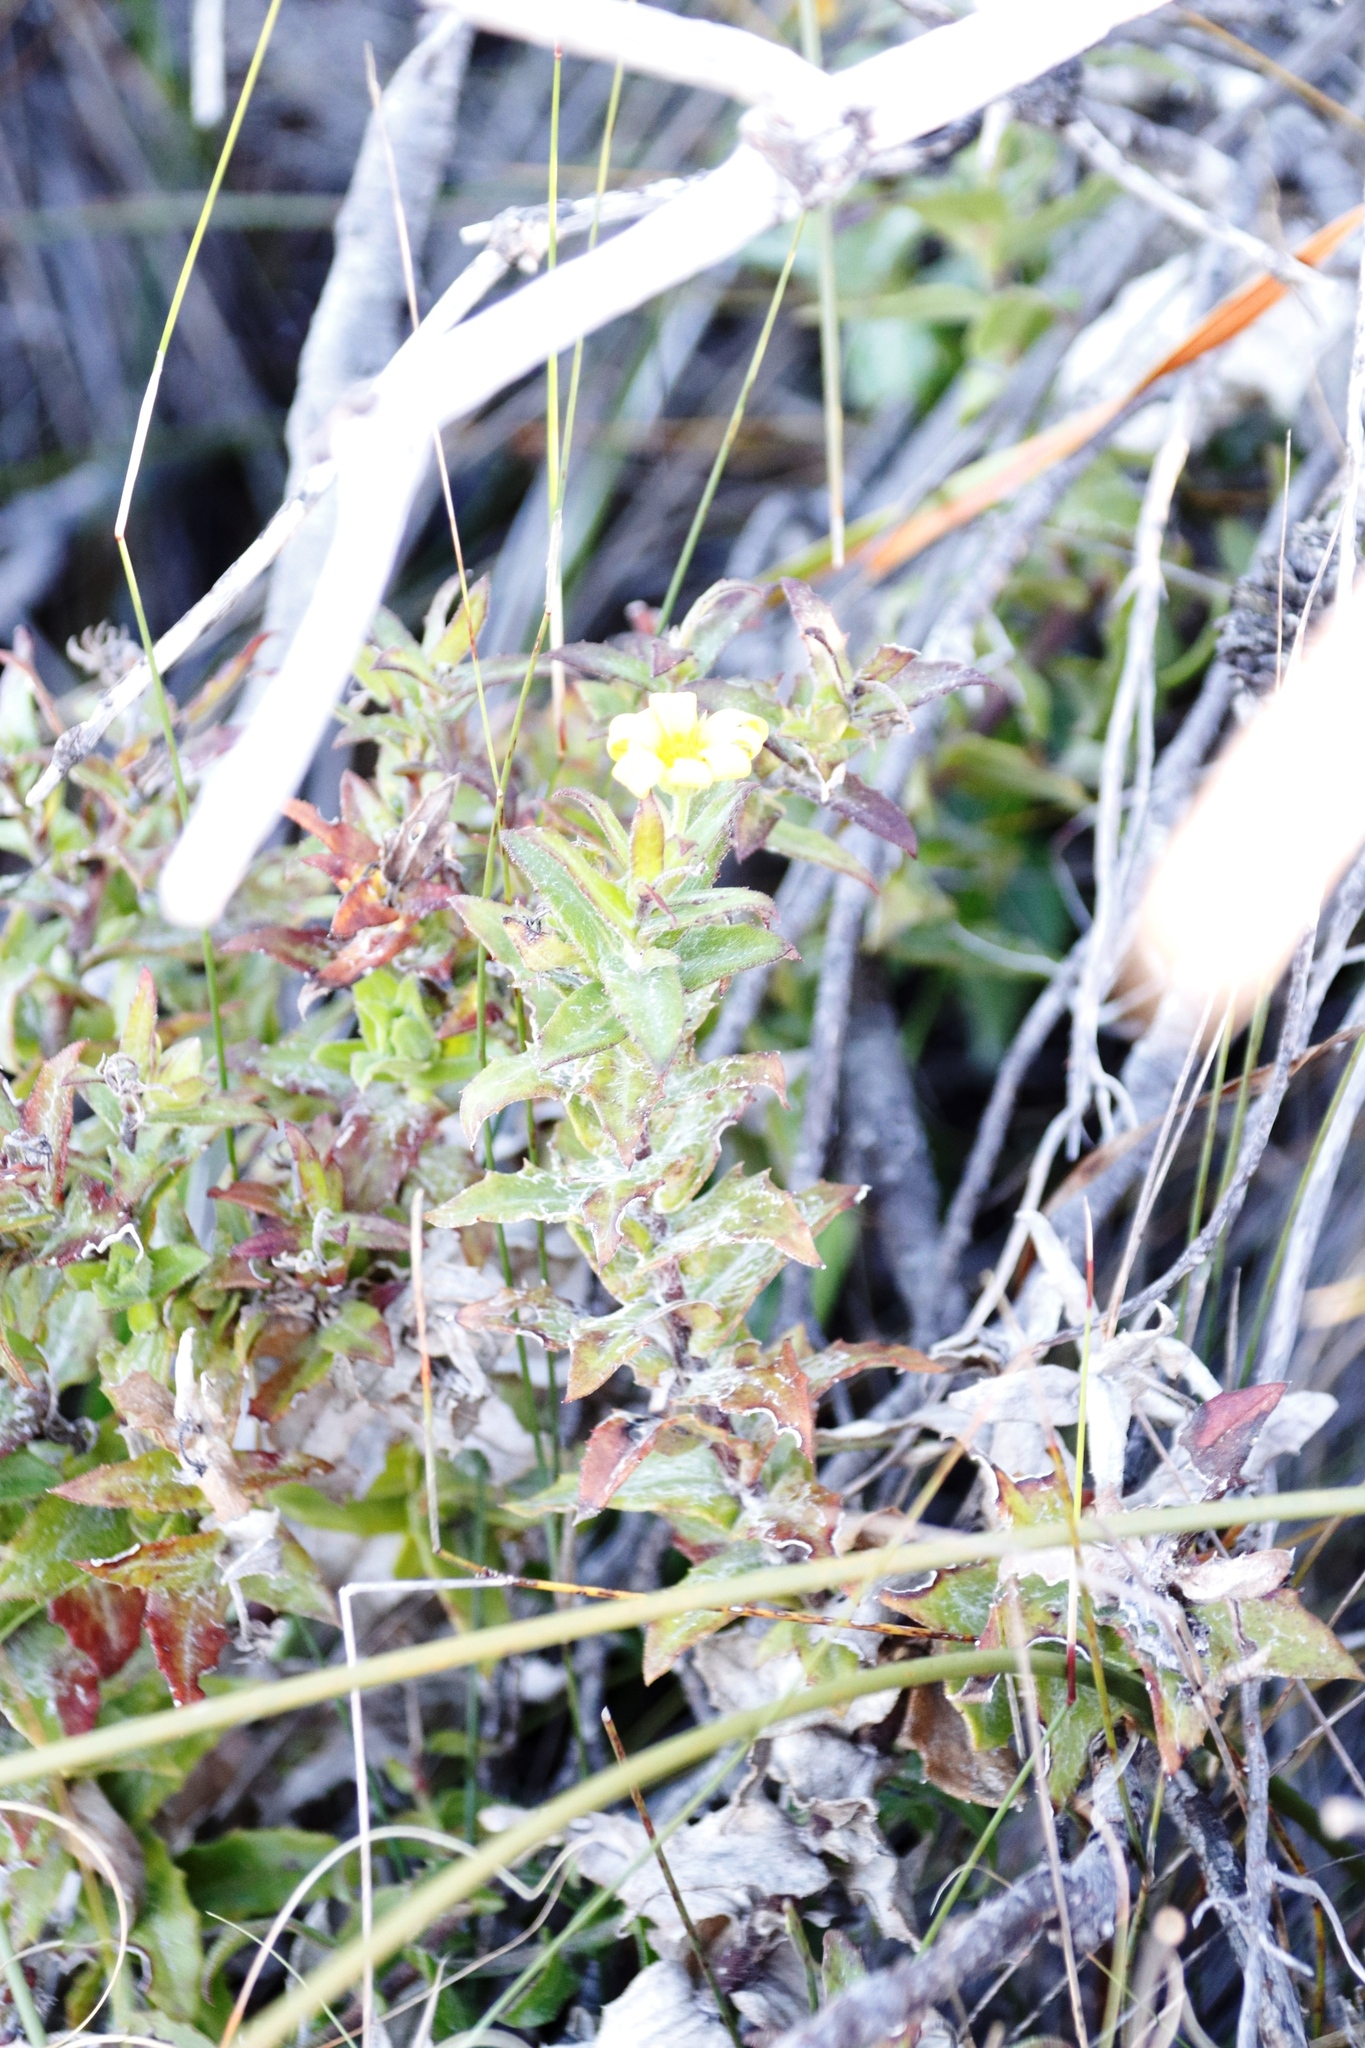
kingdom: Plantae
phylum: Tracheophyta
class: Magnoliopsida
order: Asterales
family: Asteraceae
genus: Osteospermum
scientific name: Osteospermum ilicifolium
